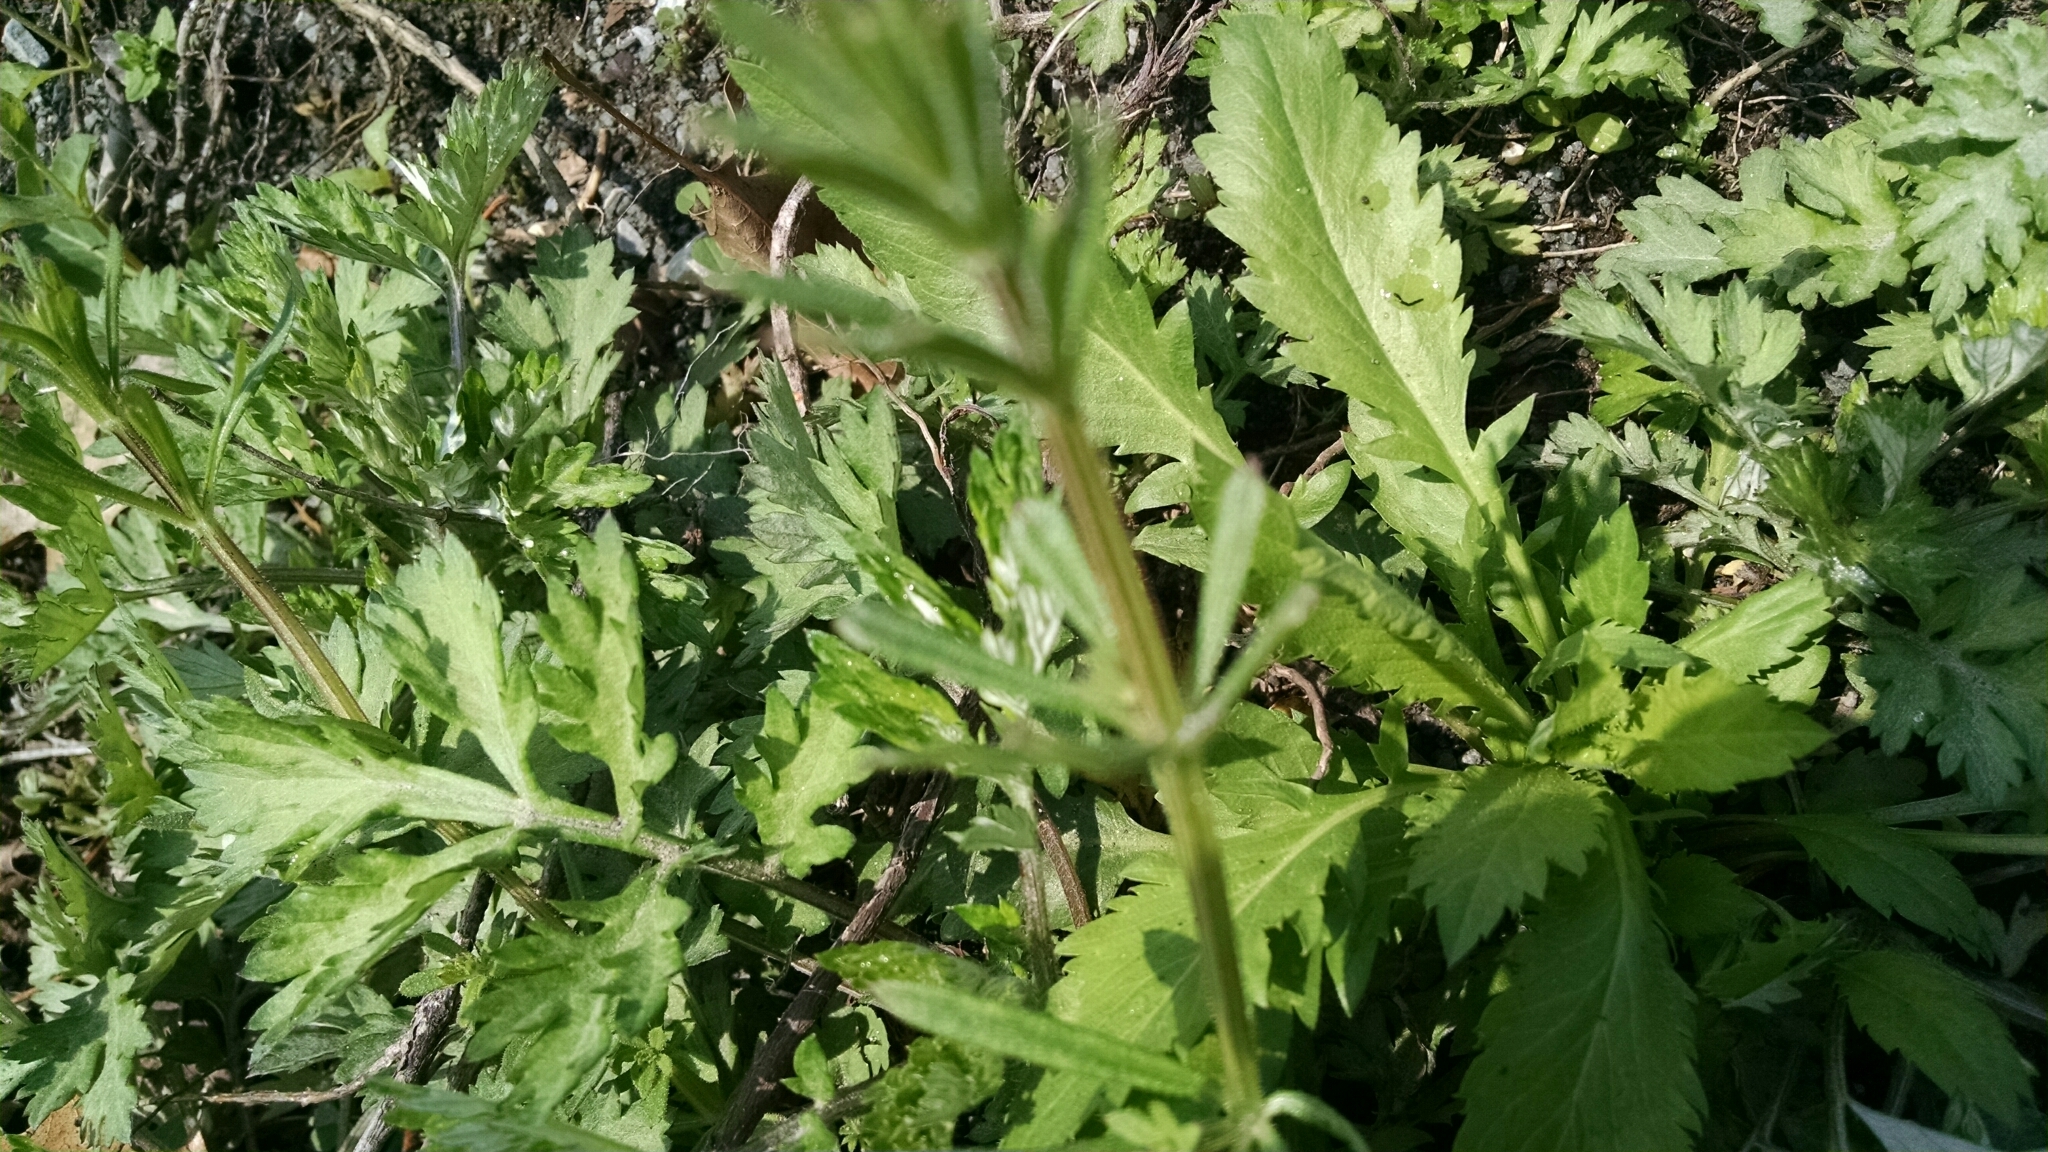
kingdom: Plantae
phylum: Tracheophyta
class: Magnoliopsida
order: Gentianales
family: Rubiaceae
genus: Galium
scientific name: Galium aparine
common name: Cleavers
